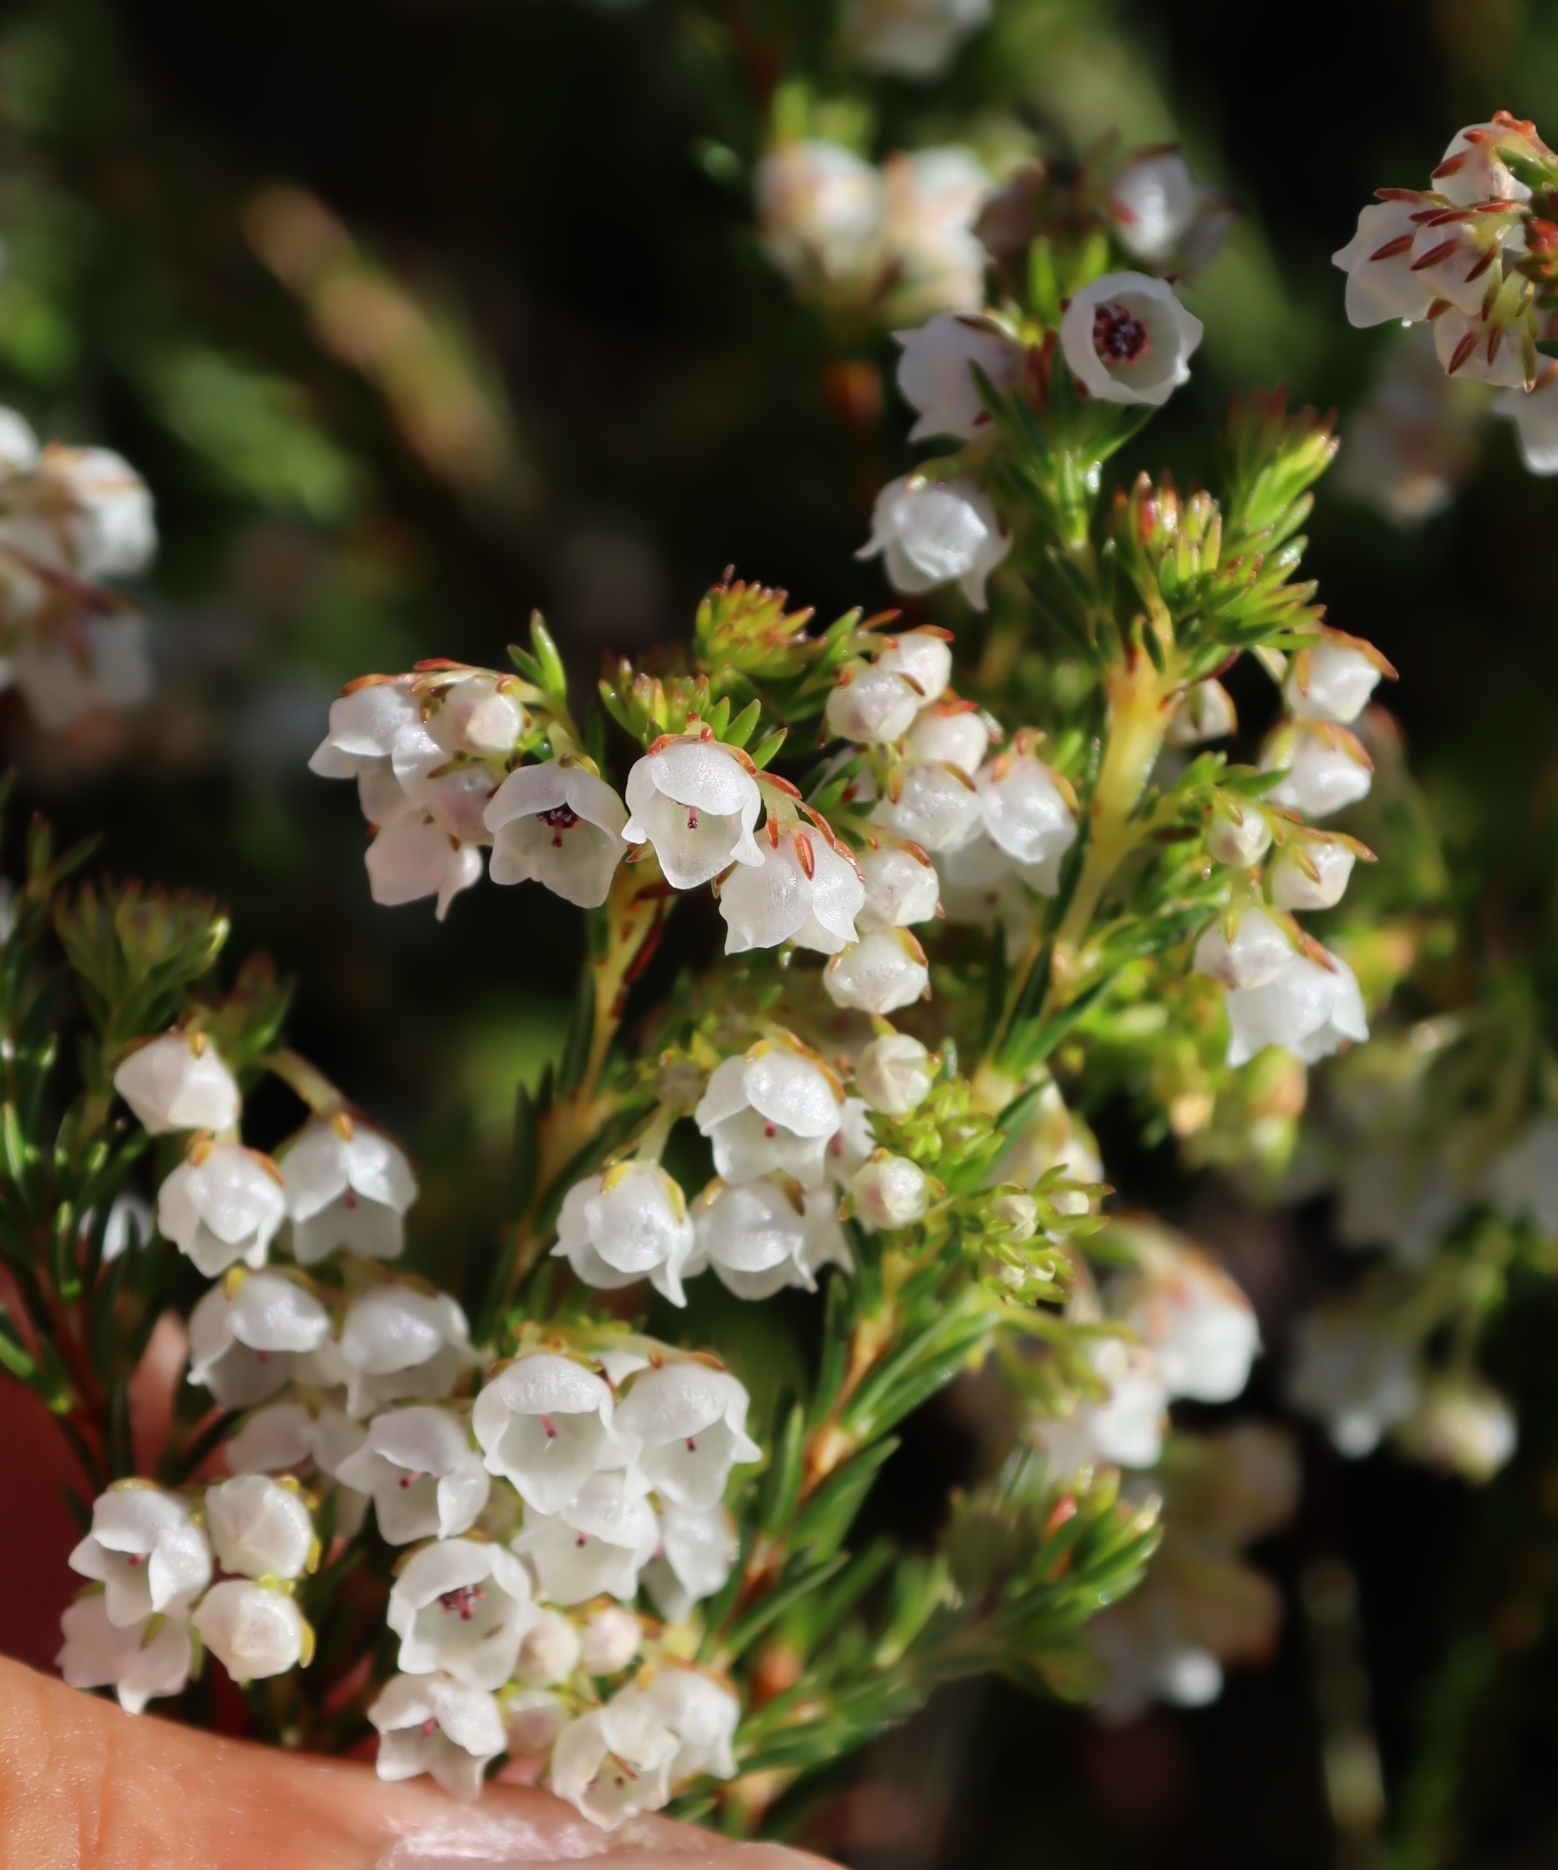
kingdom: Plantae
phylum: Tracheophyta
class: Magnoliopsida
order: Ericales
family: Ericaceae
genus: Erica
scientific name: Erica eburnea
